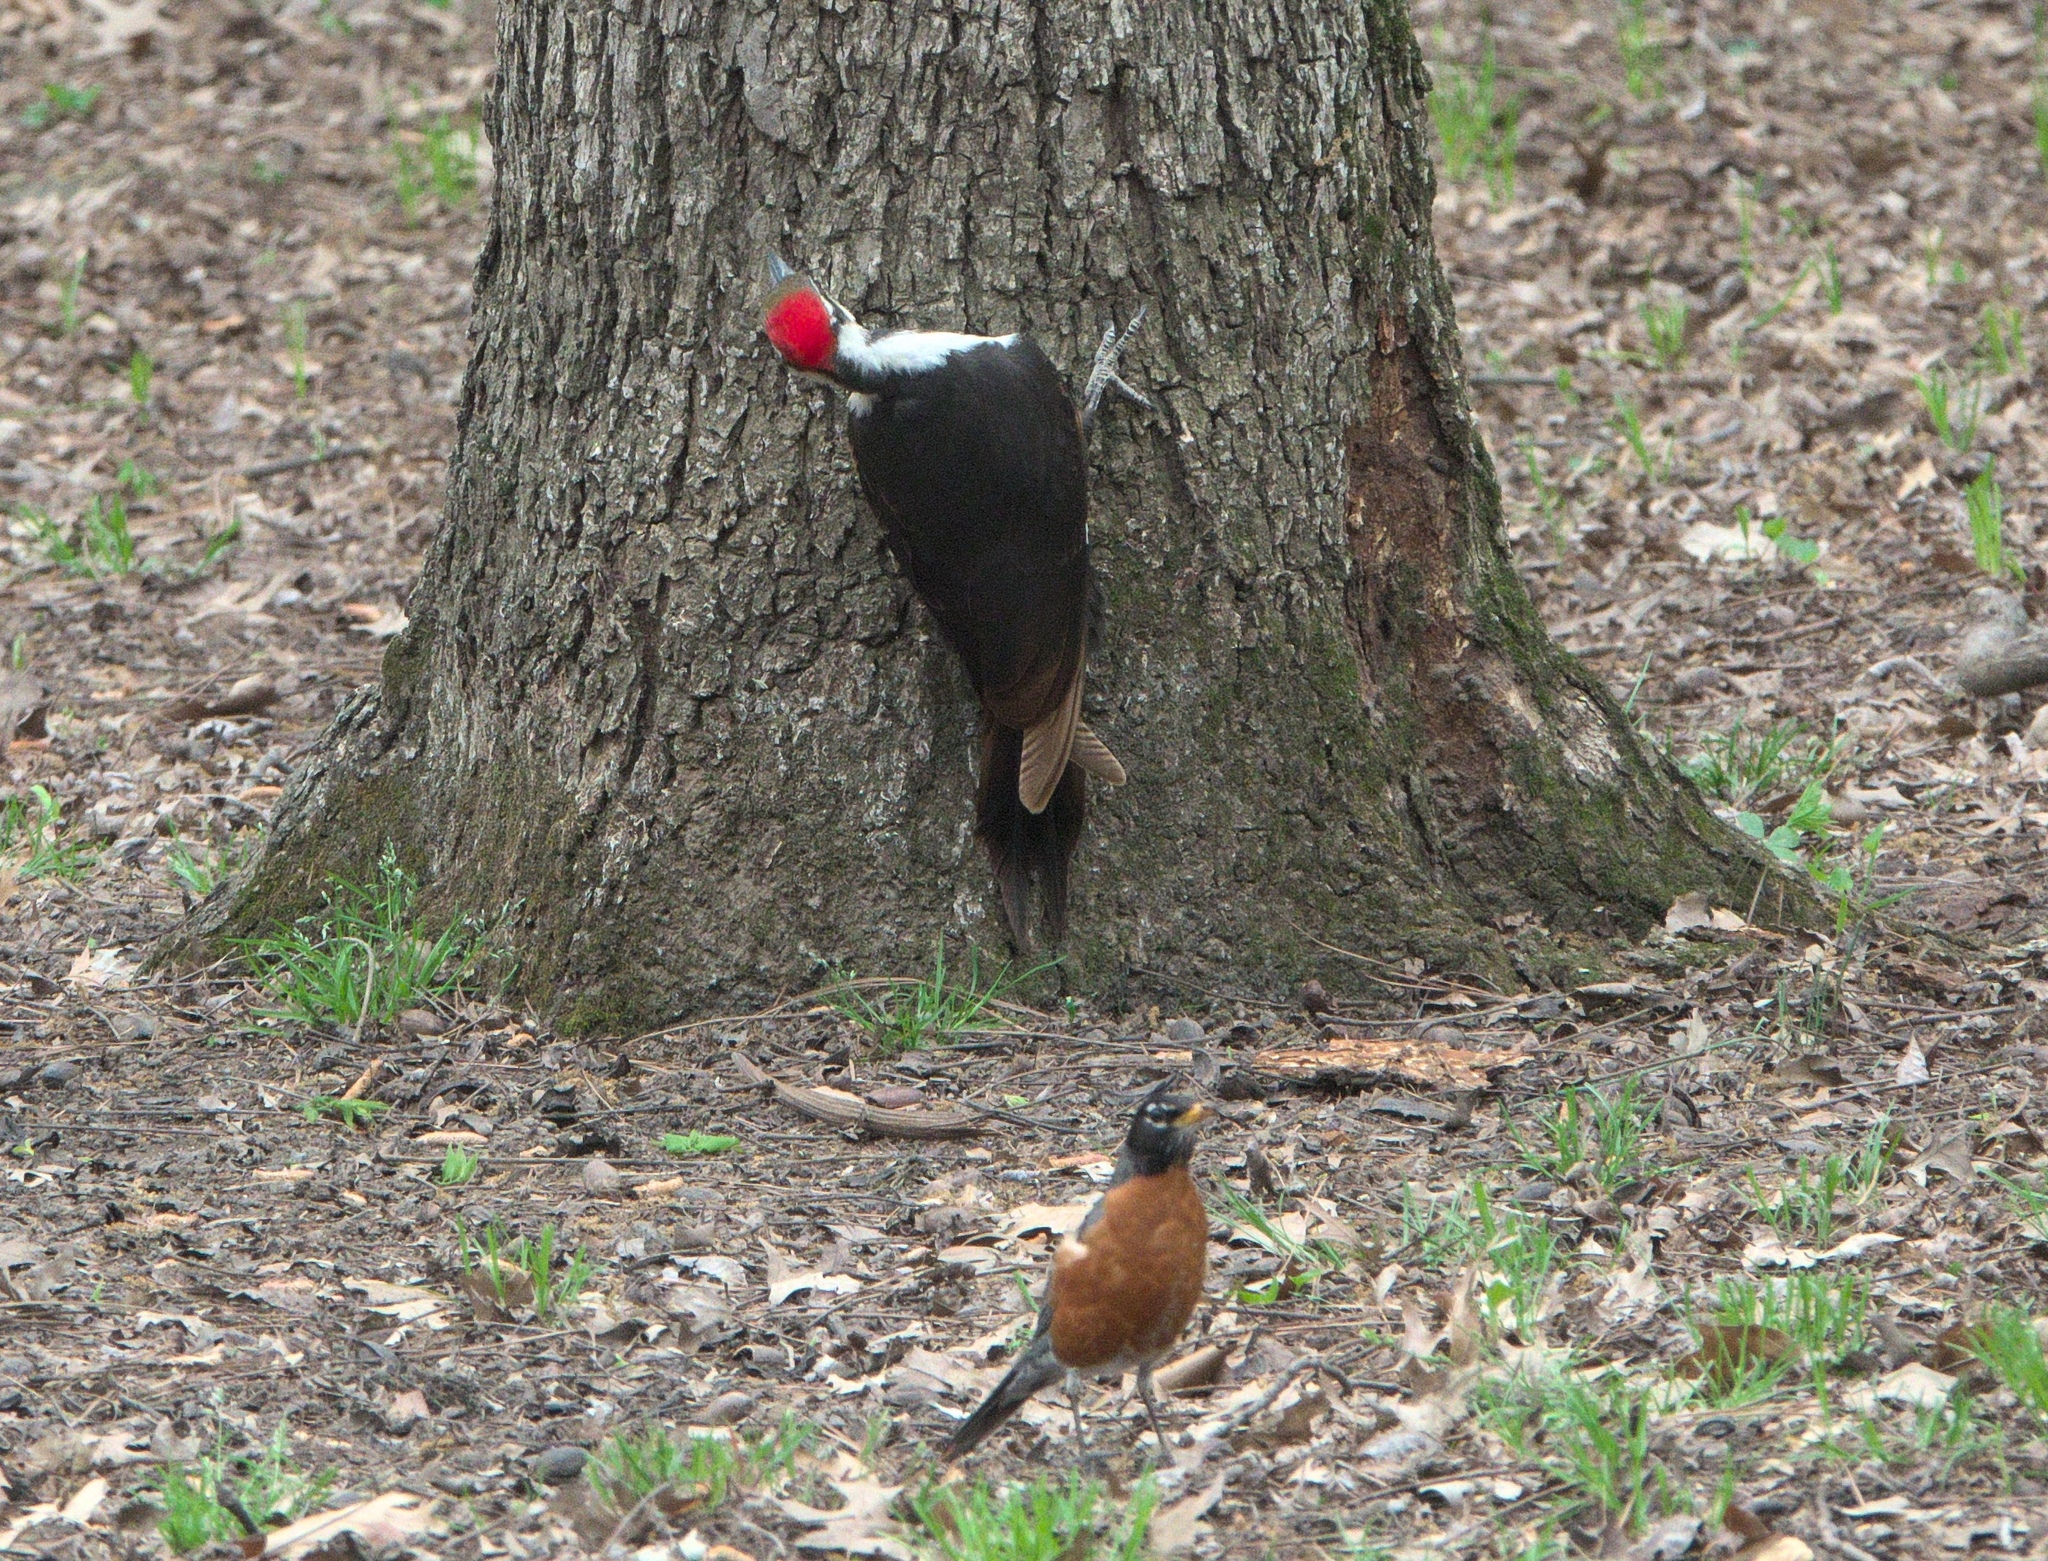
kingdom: Animalia
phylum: Chordata
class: Aves
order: Piciformes
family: Picidae
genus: Dryocopus
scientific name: Dryocopus pileatus
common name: Pileated woodpecker
